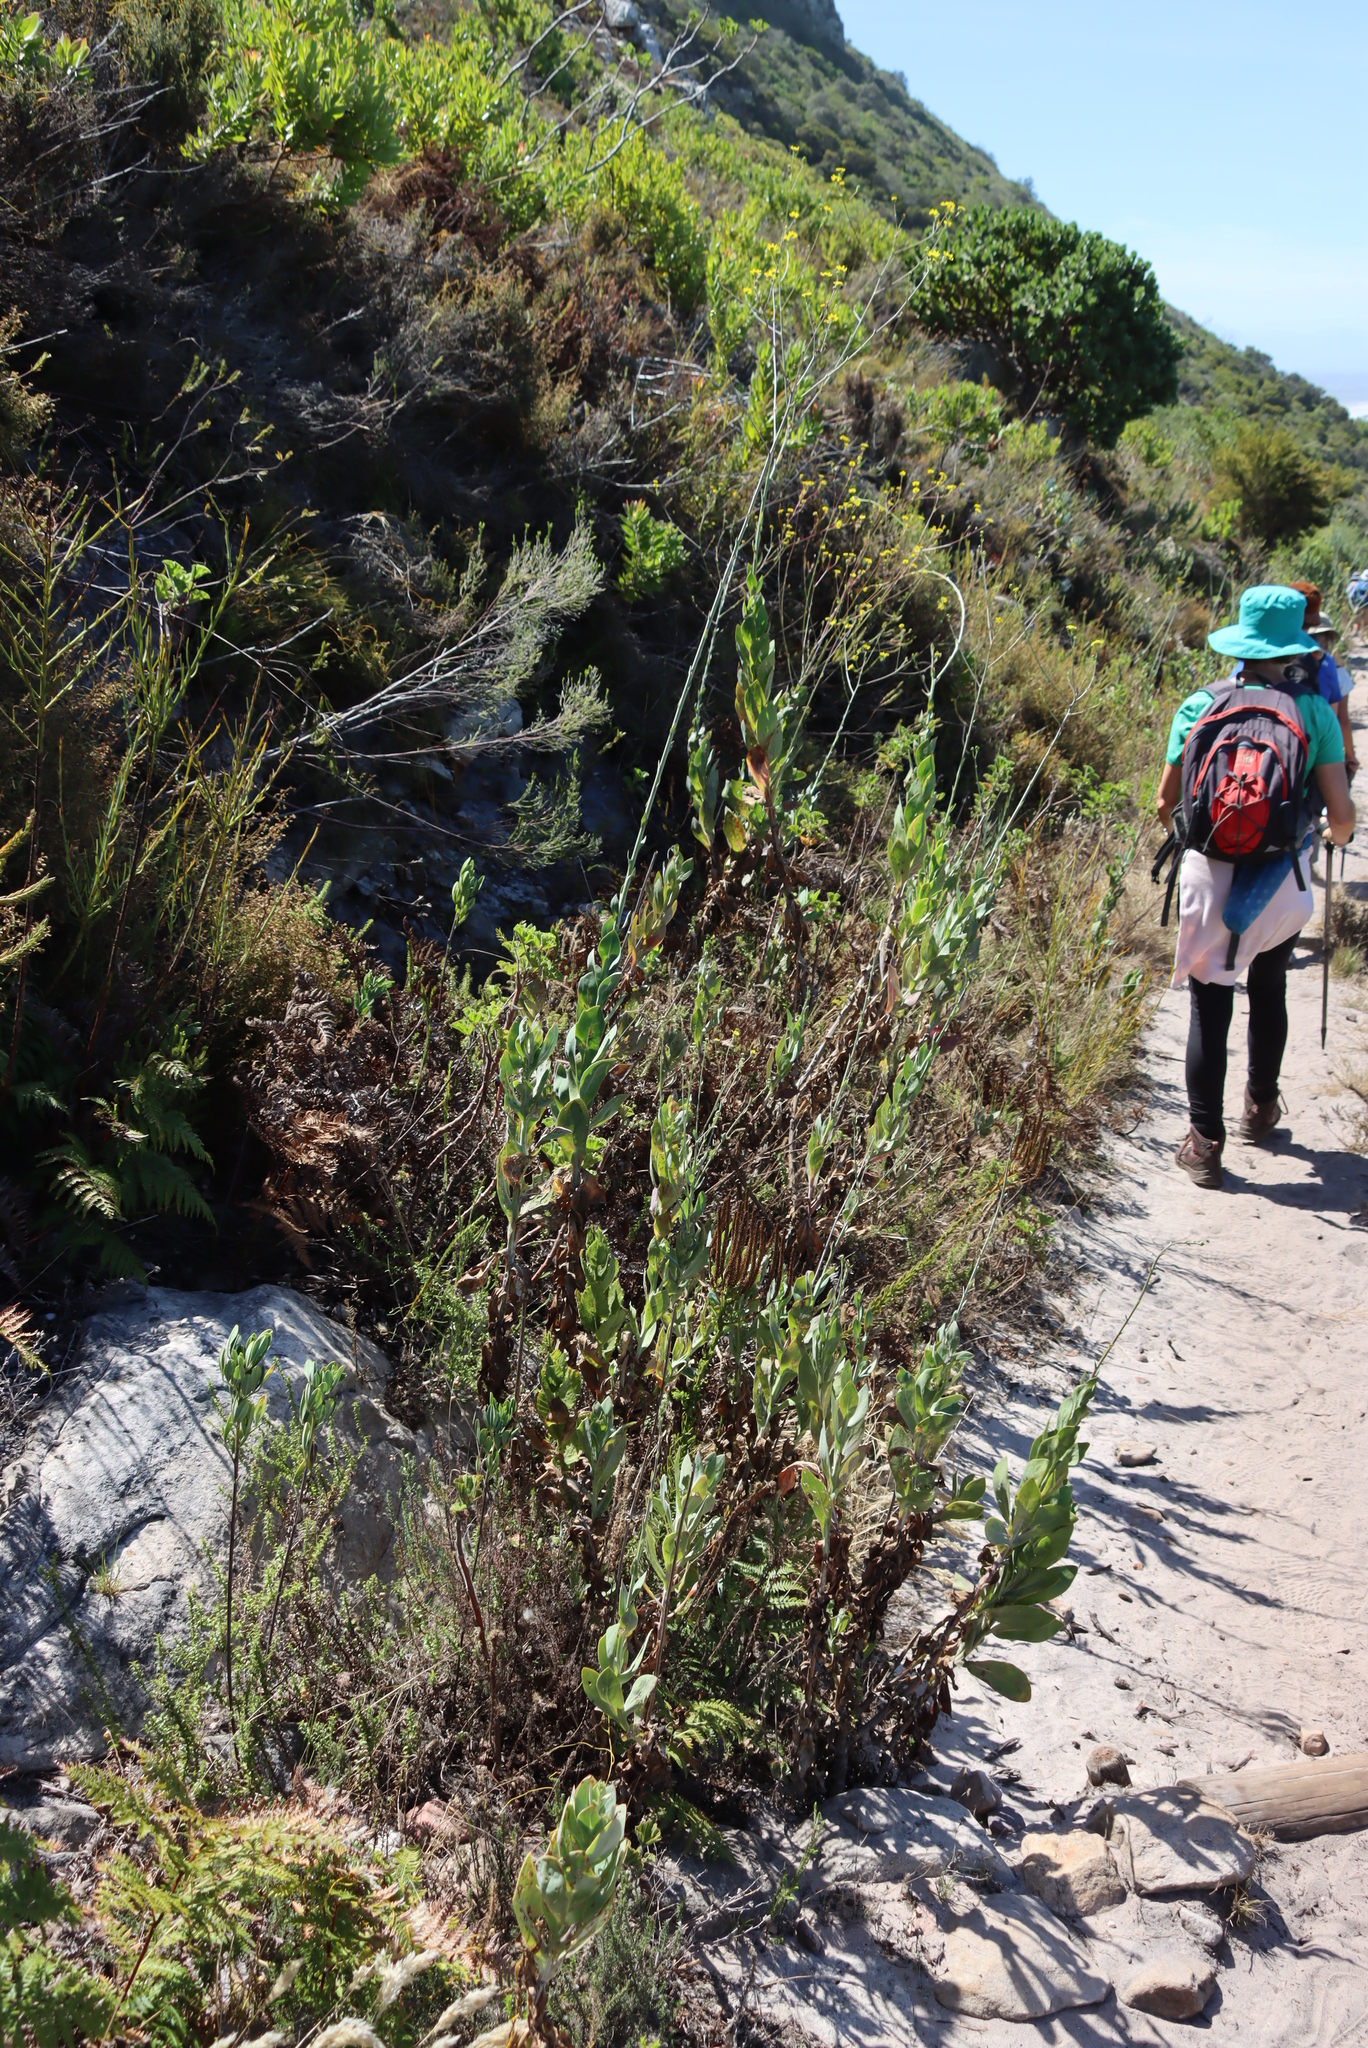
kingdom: Plantae
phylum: Tracheophyta
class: Magnoliopsida
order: Asterales
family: Asteraceae
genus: Othonna
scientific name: Othonna quinquedentata
